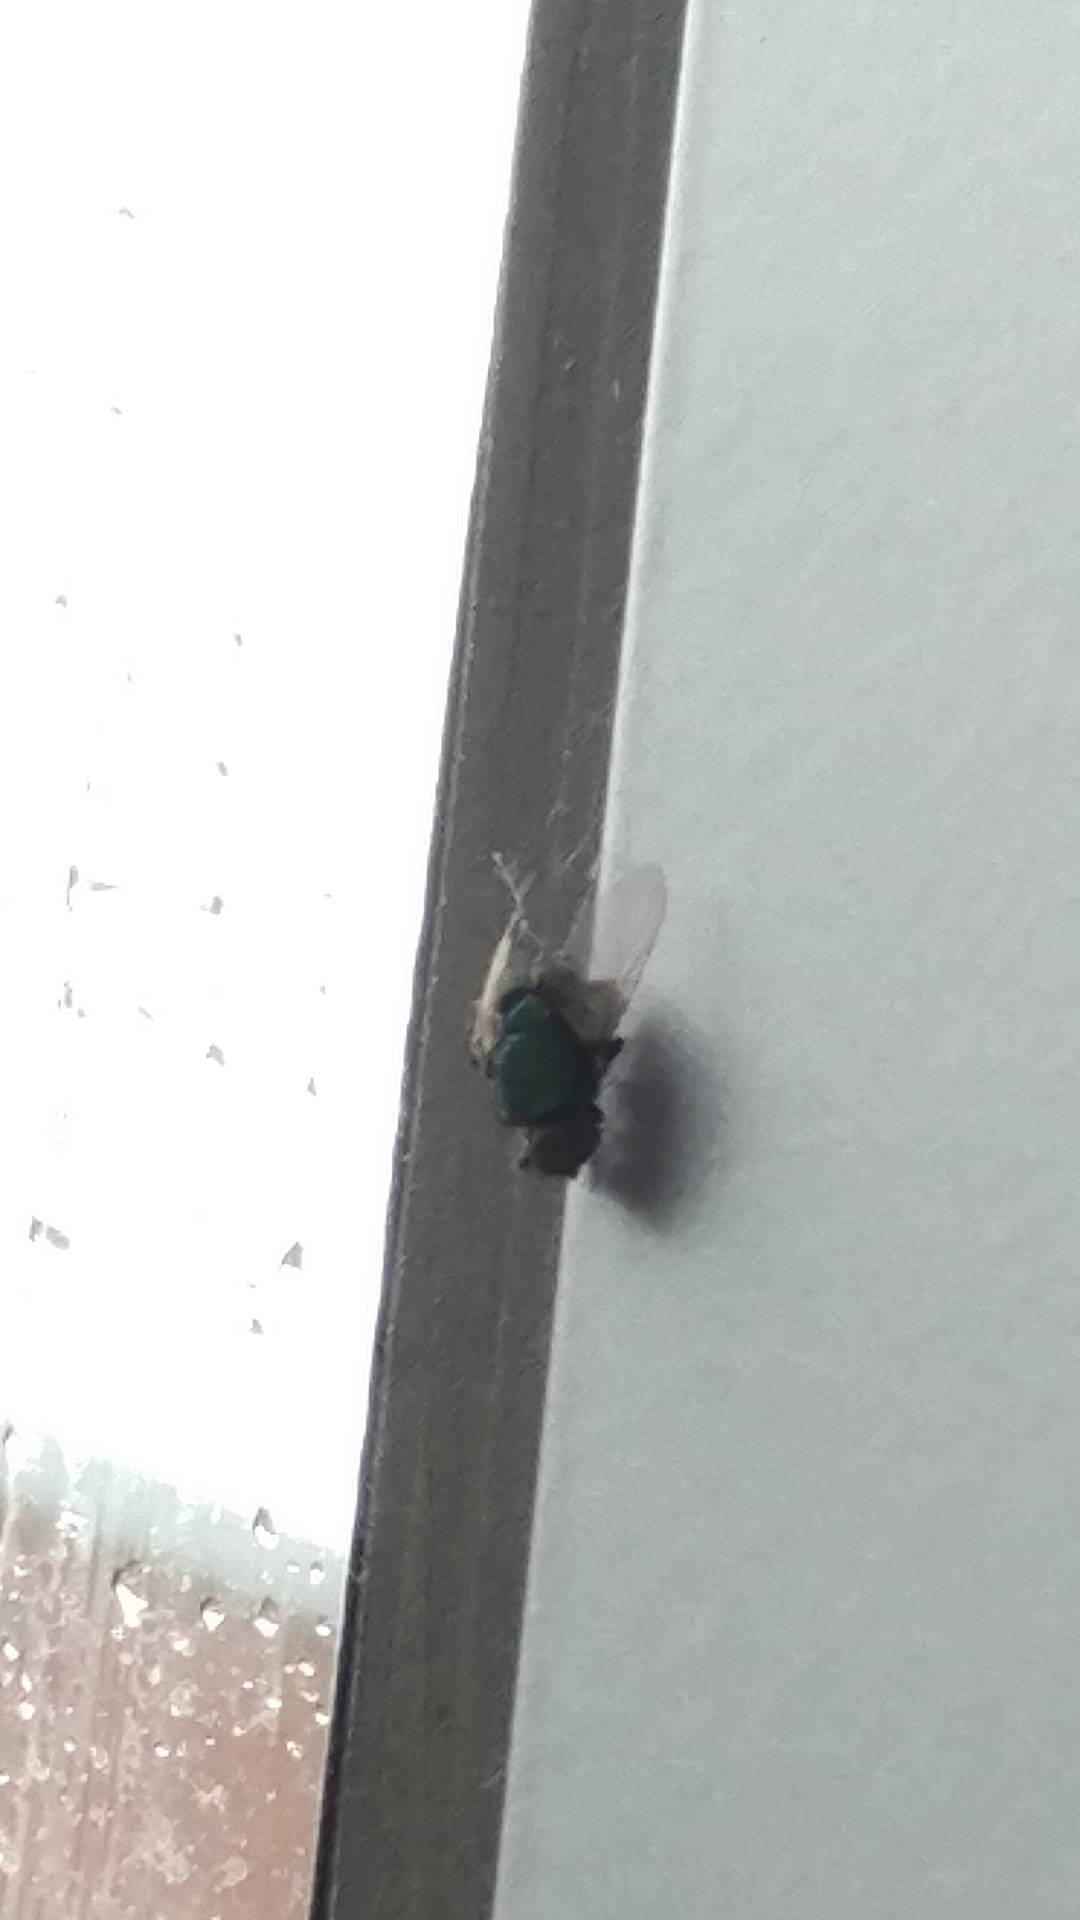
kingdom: Animalia
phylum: Arthropoda
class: Insecta
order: Diptera
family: Calliphoridae
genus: Lucilia
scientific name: Lucilia
